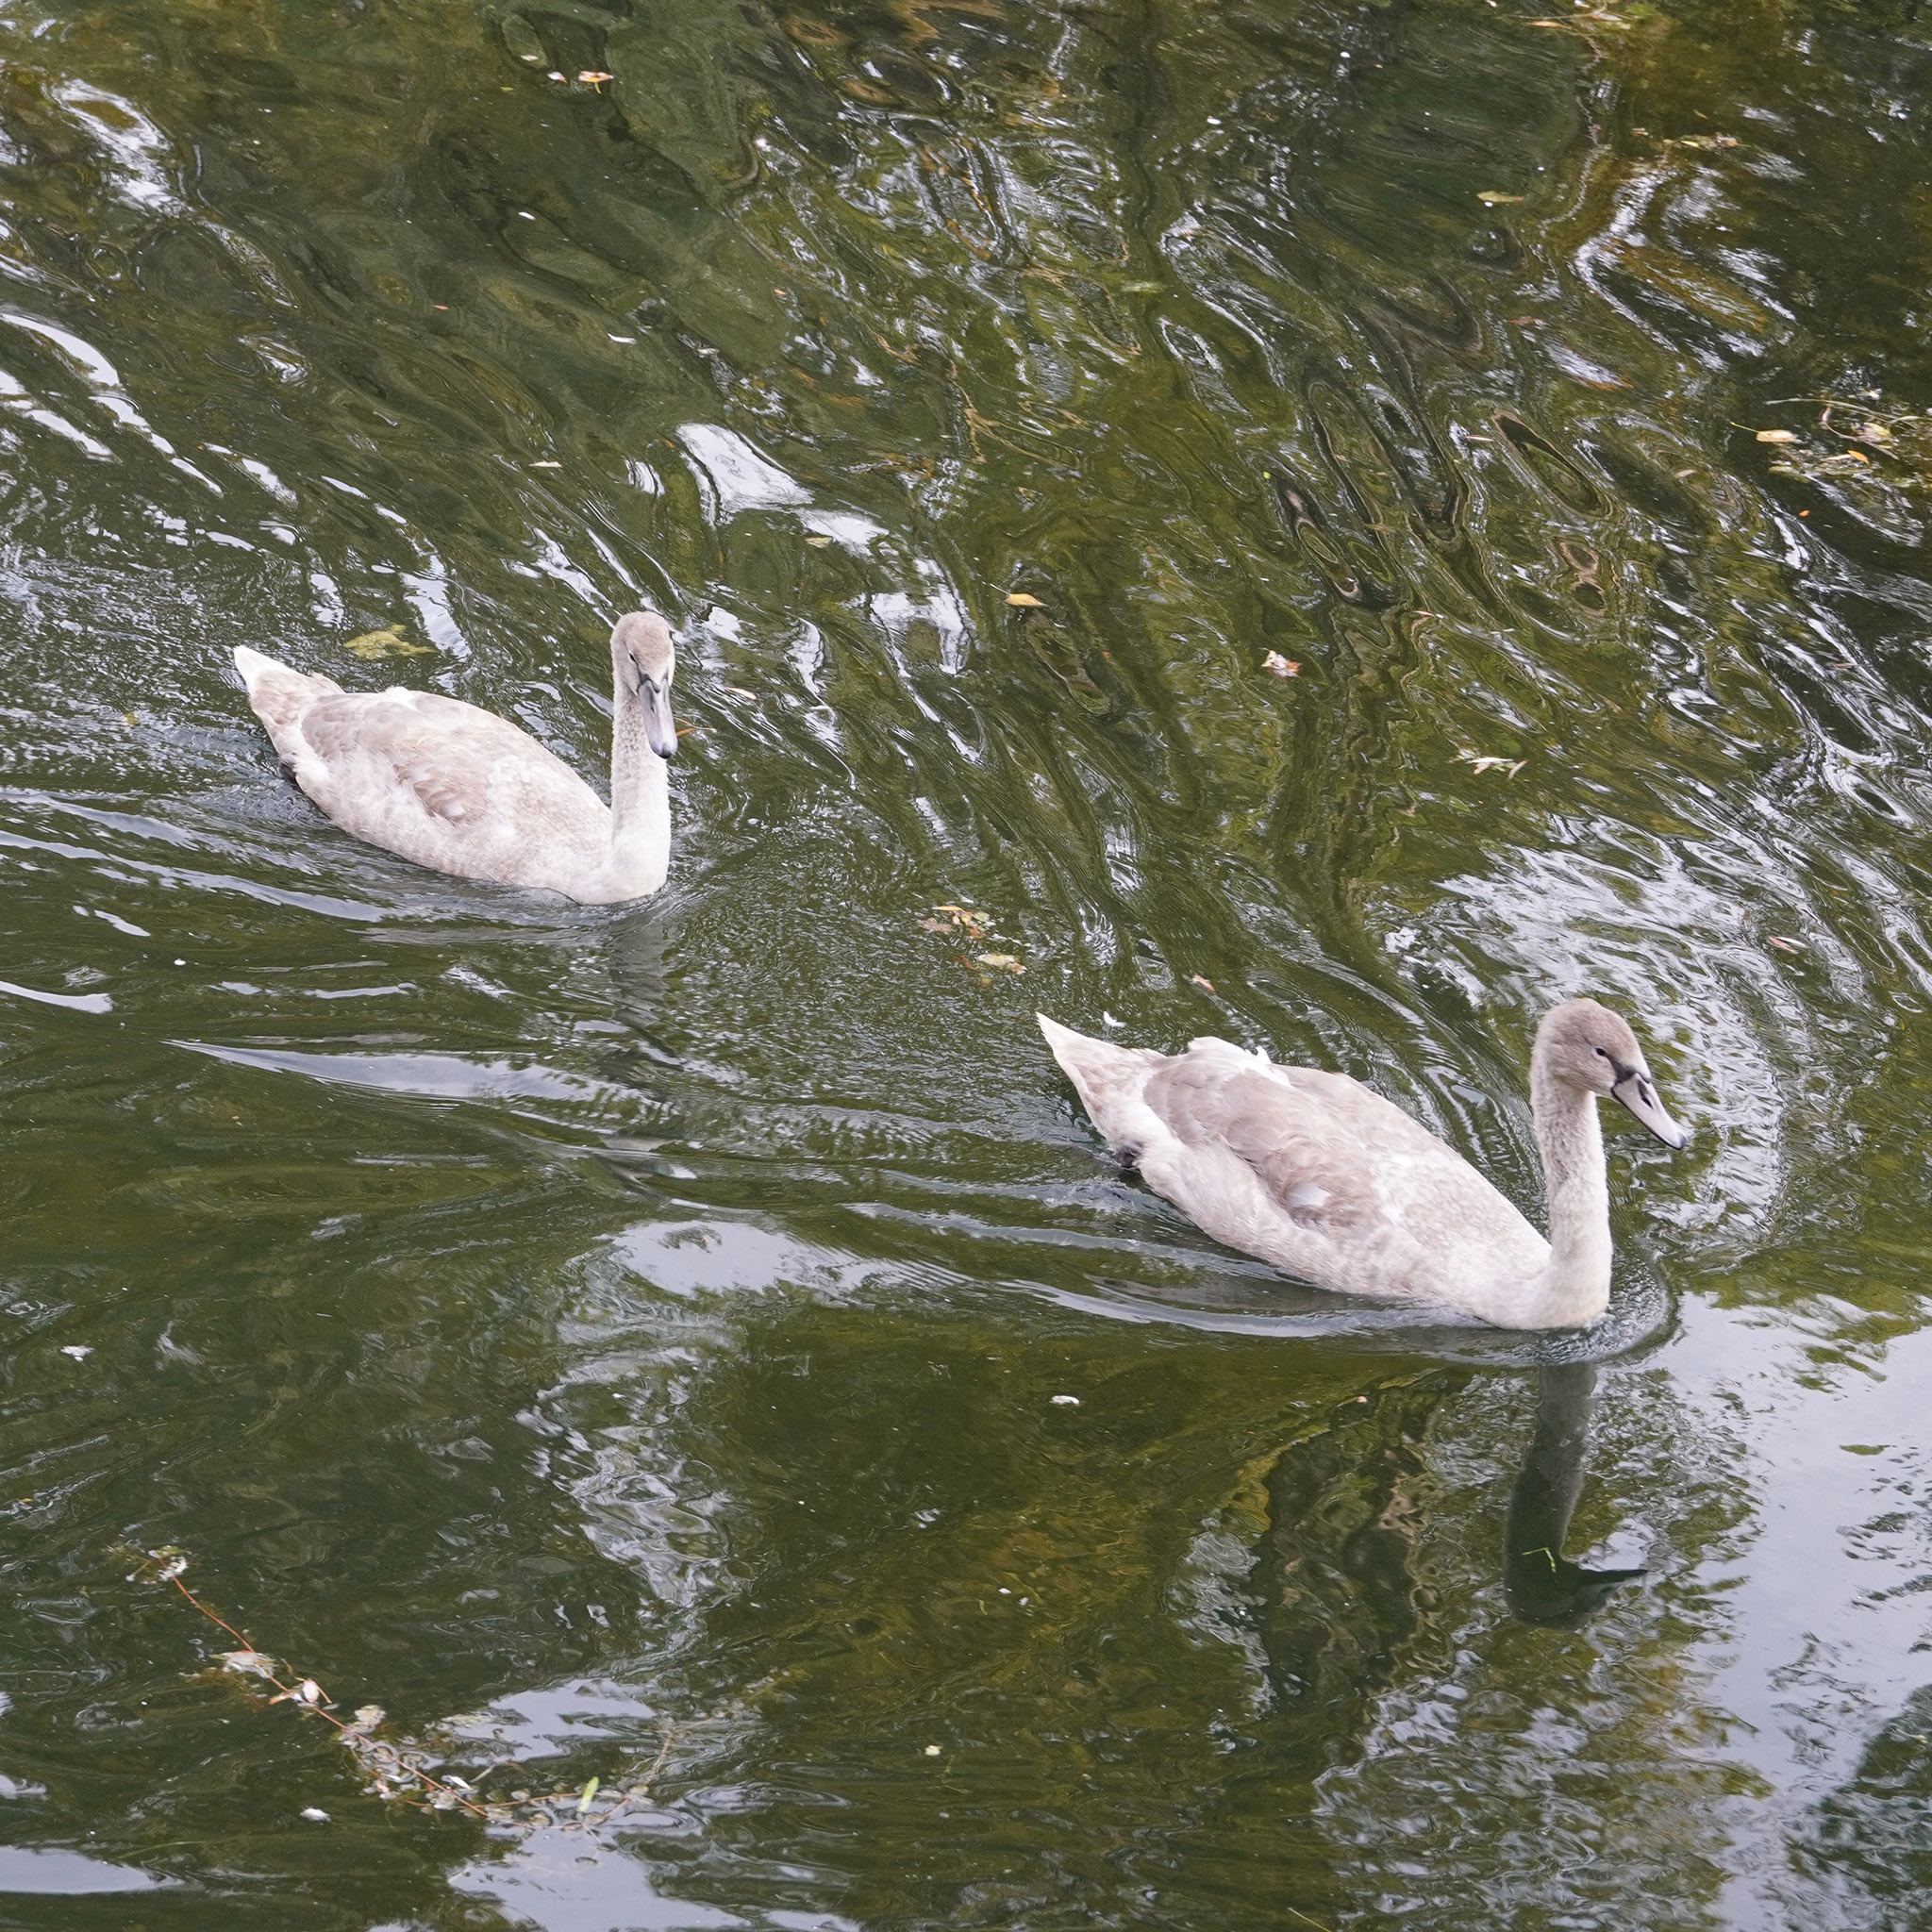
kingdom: Animalia
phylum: Chordata
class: Aves
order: Anseriformes
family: Anatidae
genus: Cygnus
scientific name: Cygnus olor
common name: Mute swan
